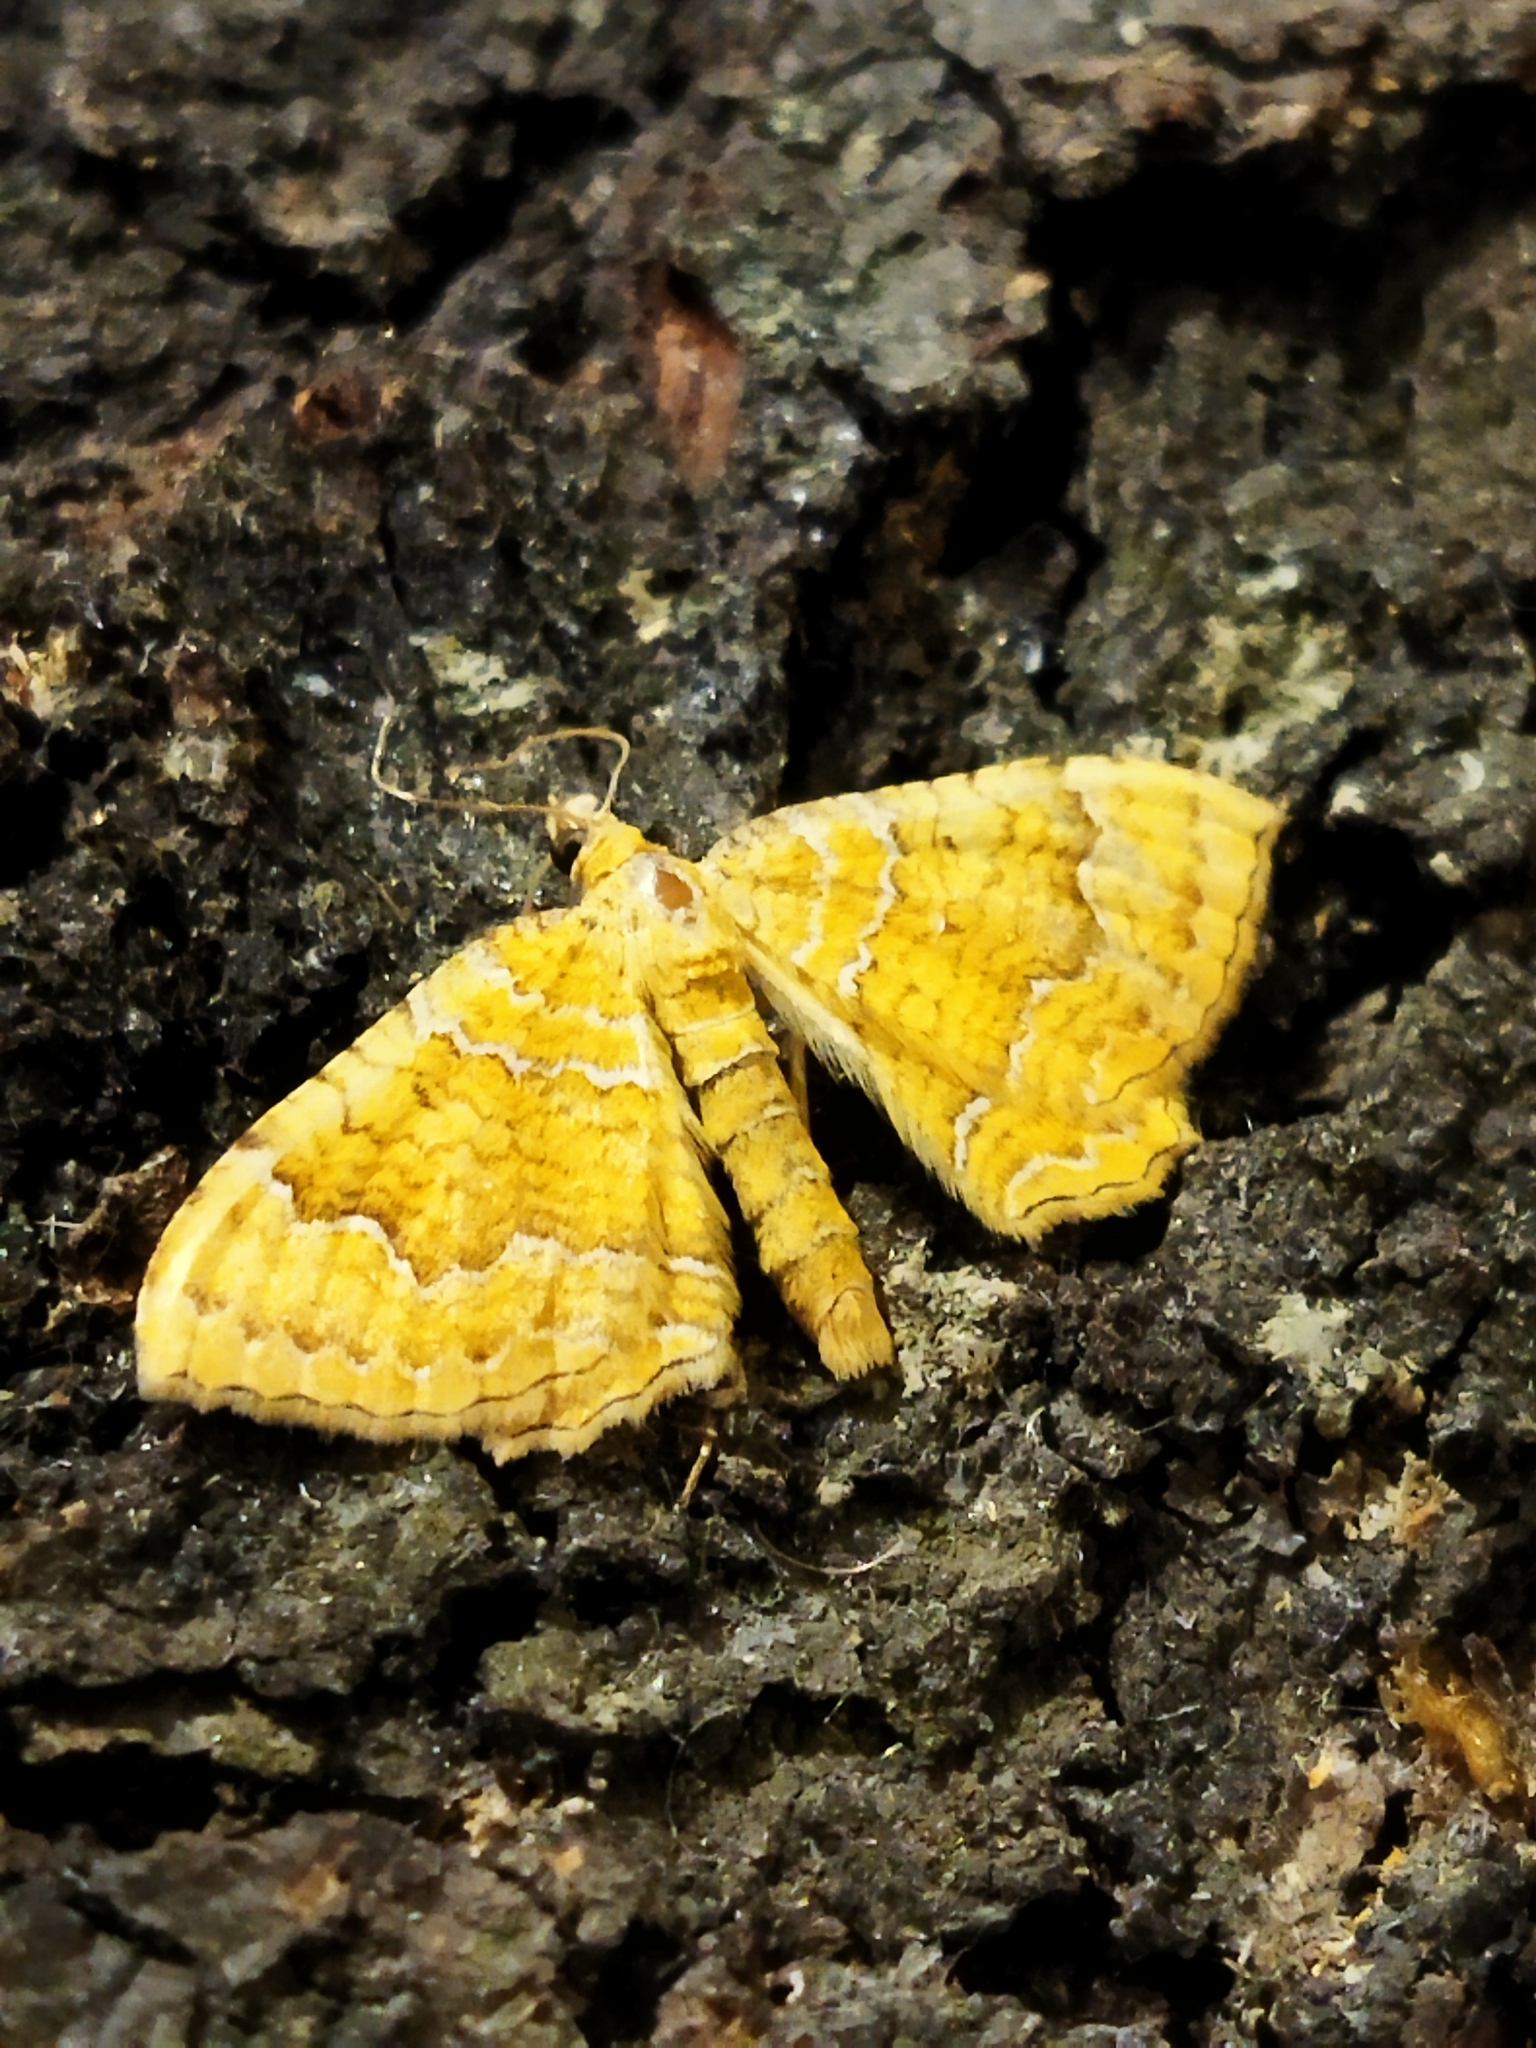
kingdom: Animalia
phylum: Arthropoda
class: Insecta
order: Lepidoptera
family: Geometridae
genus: Camptogramma
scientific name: Camptogramma bilineata
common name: Yellow shell
